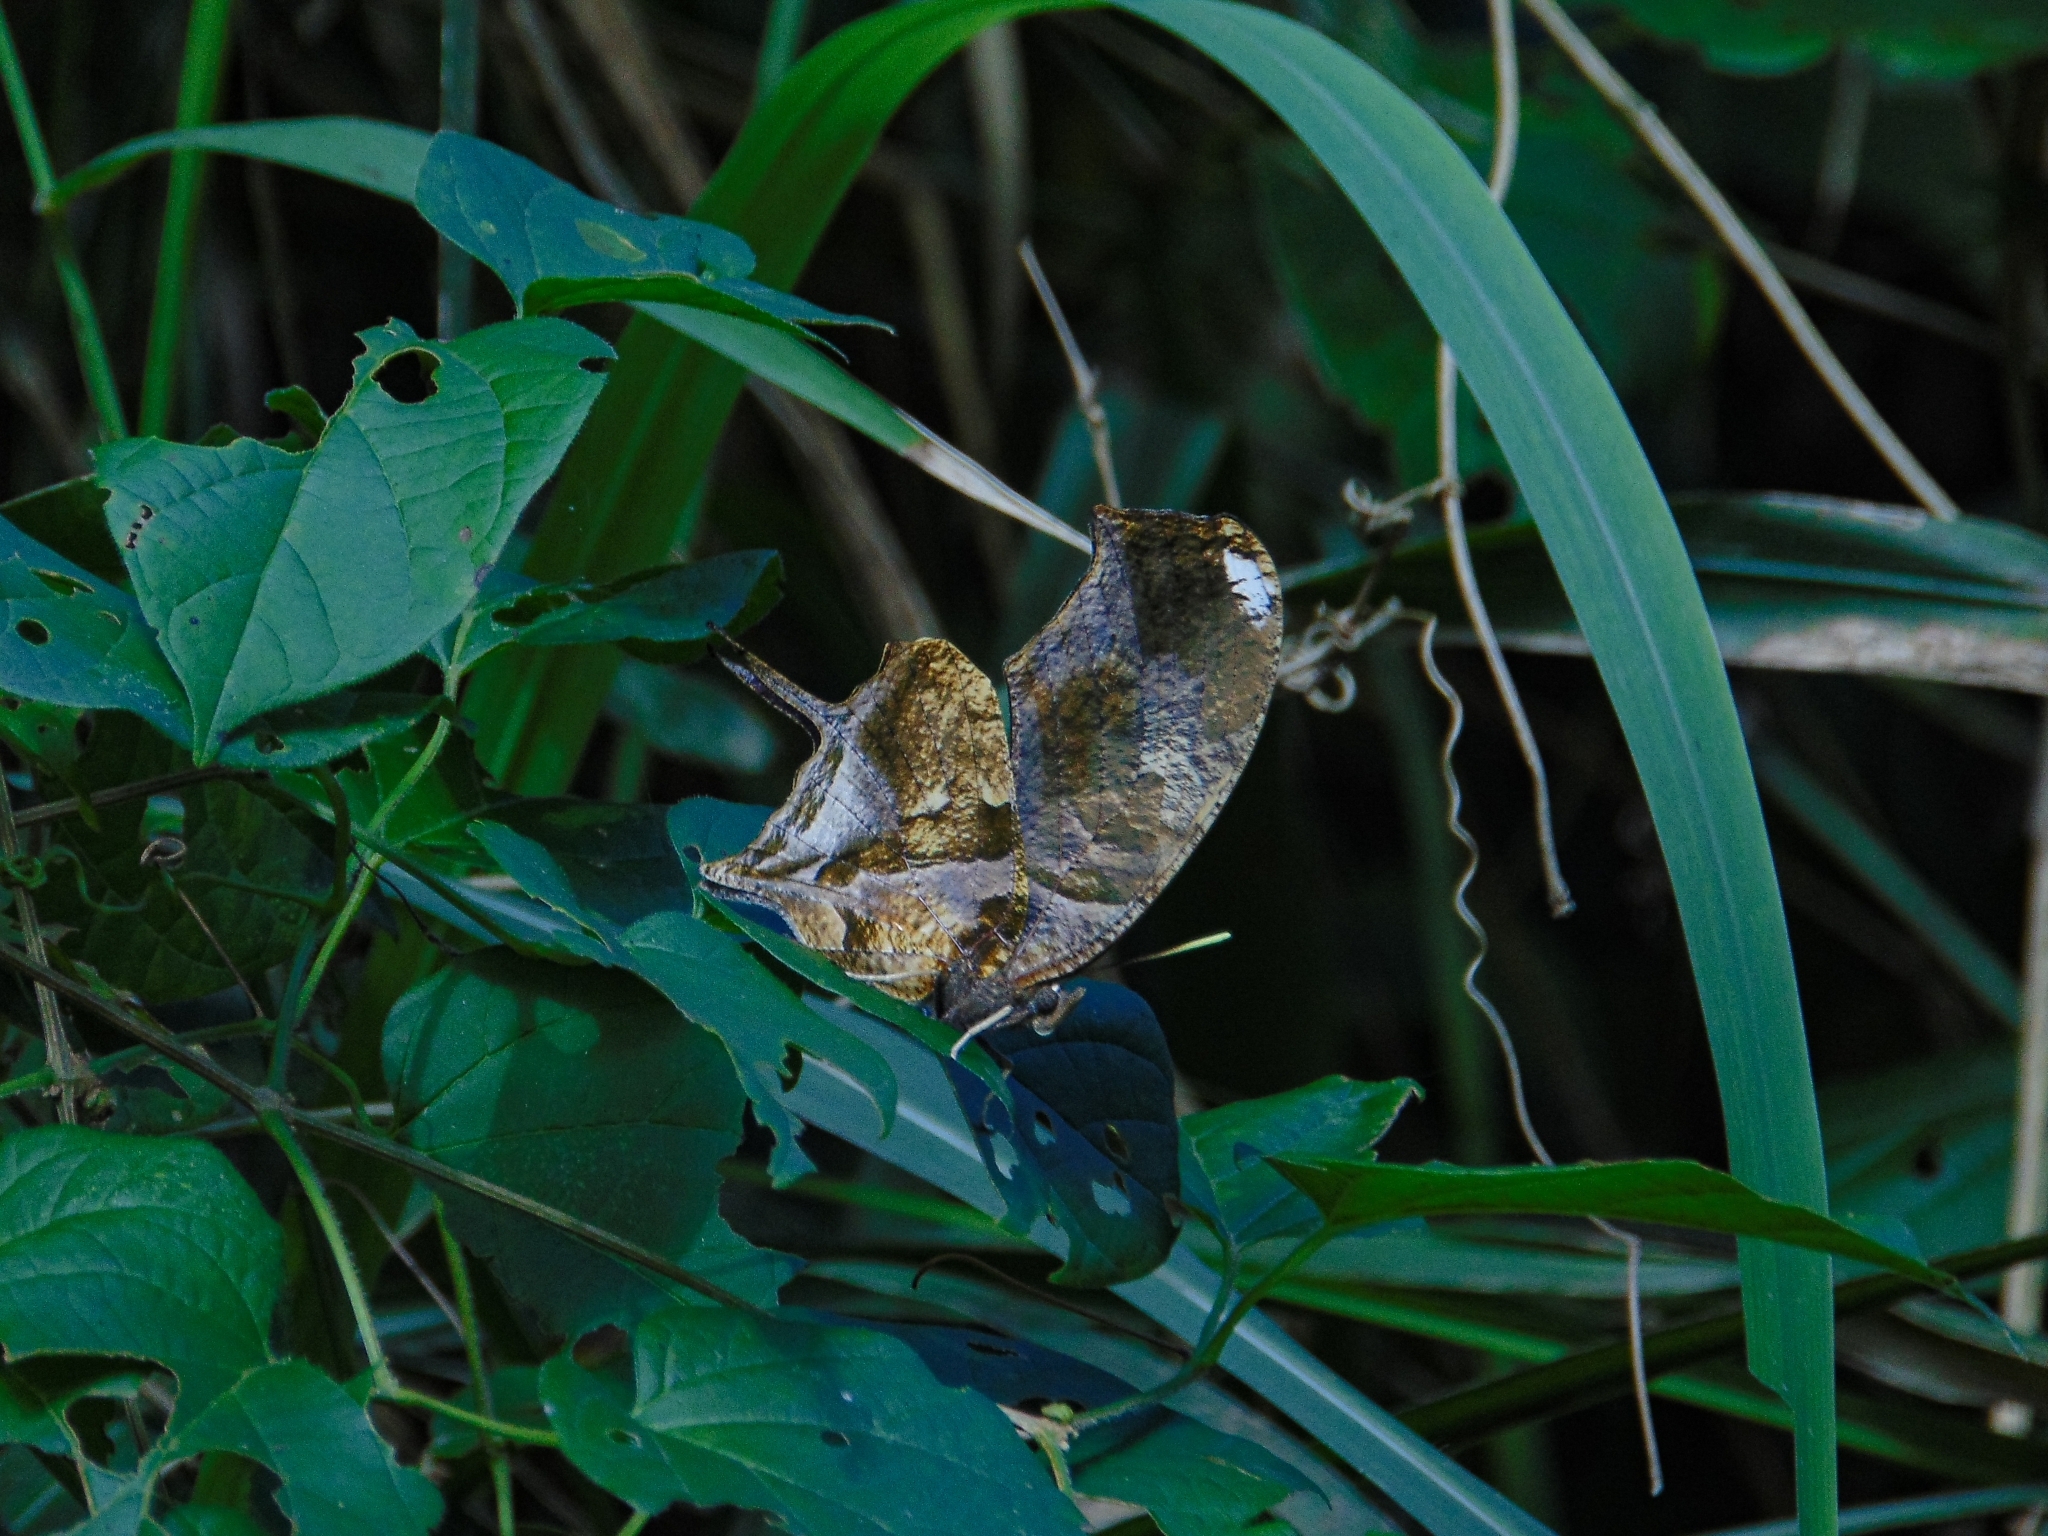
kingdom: Animalia
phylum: Arthropoda
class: Insecta
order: Lepidoptera
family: Nymphalidae
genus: Consul
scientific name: Consul fabius
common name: Tiger leafwing
